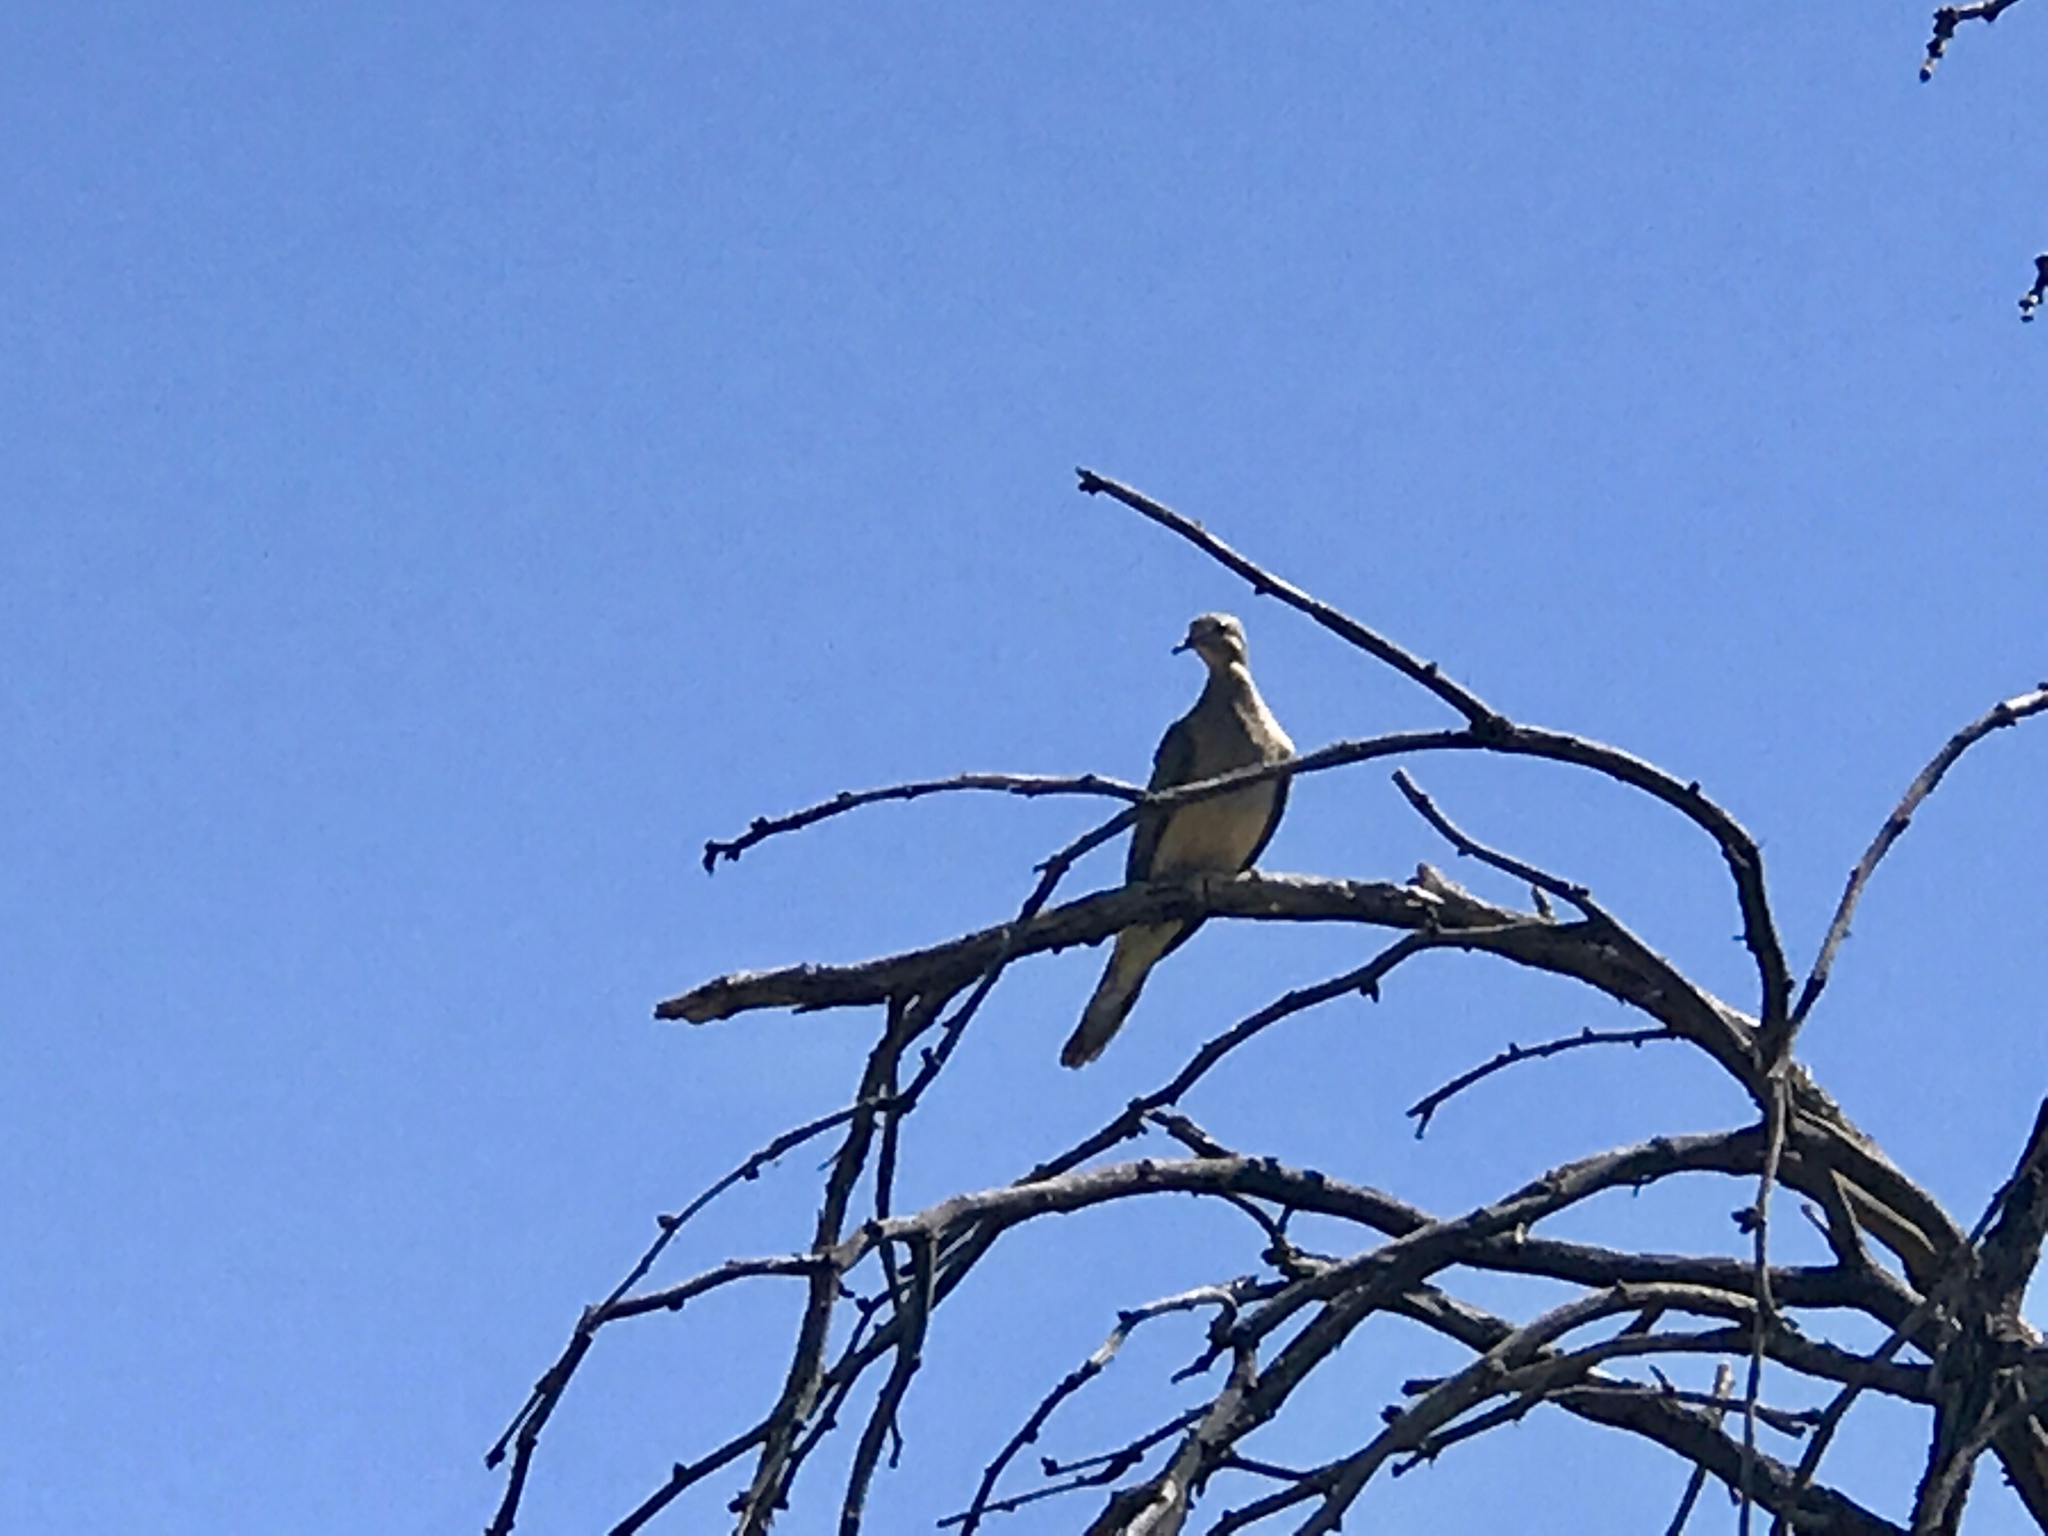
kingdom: Animalia
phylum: Chordata
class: Aves
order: Columbiformes
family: Columbidae
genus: Zenaida
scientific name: Zenaida macroura
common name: Mourning dove
